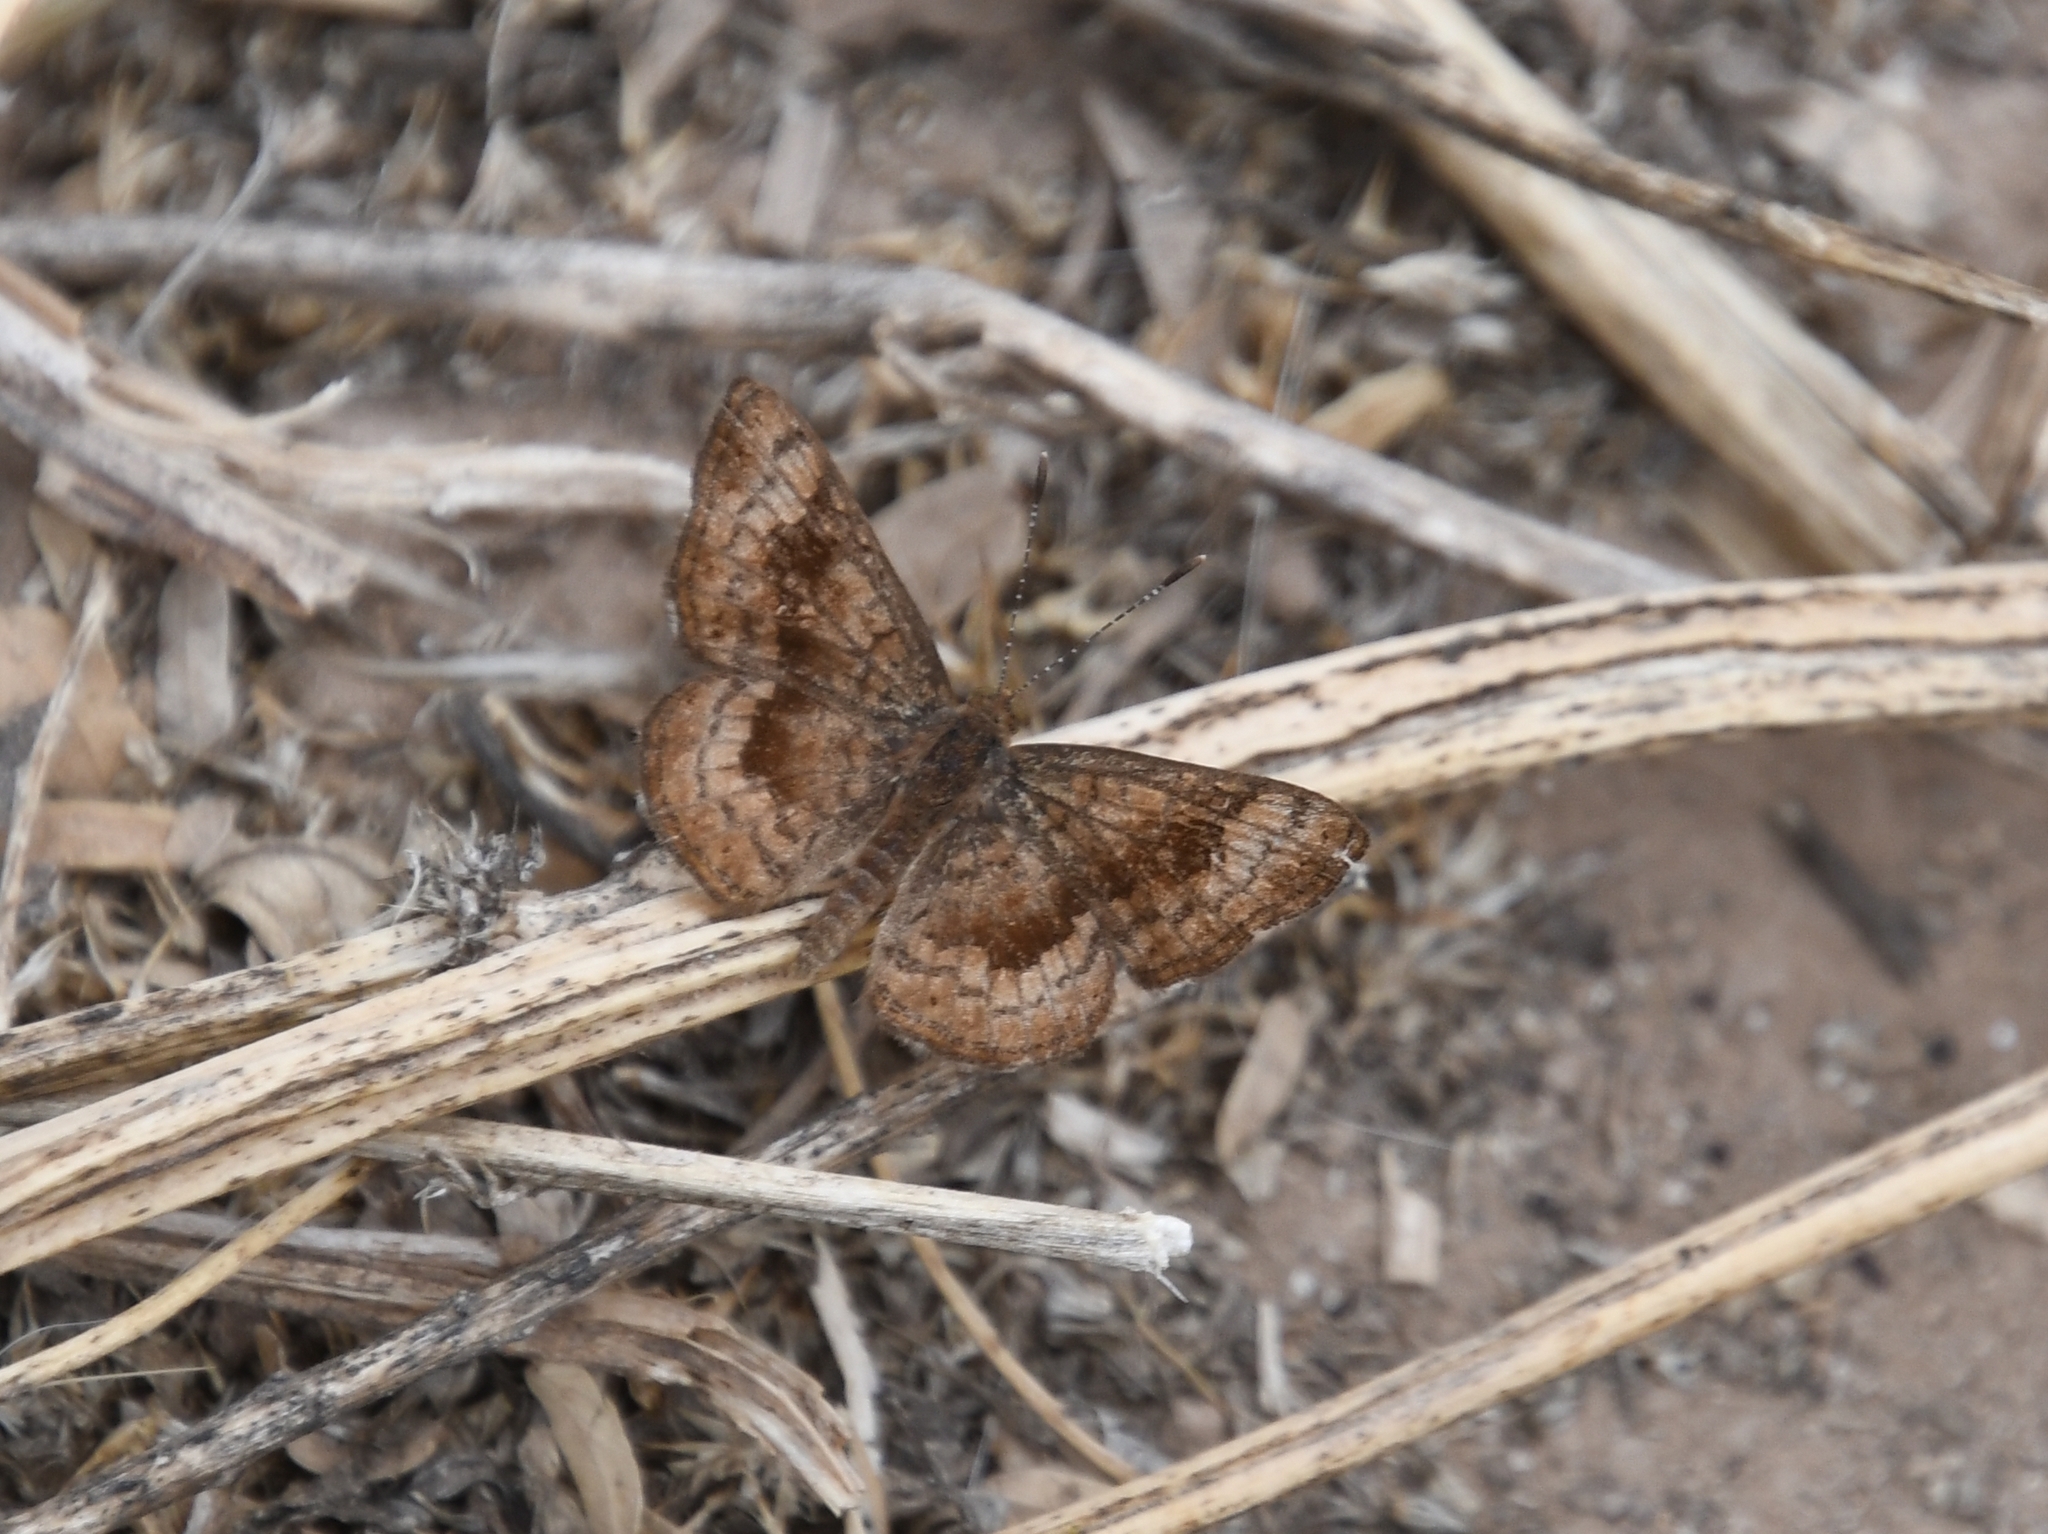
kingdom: Animalia
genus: Calephelis
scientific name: Calephelis nemesis
